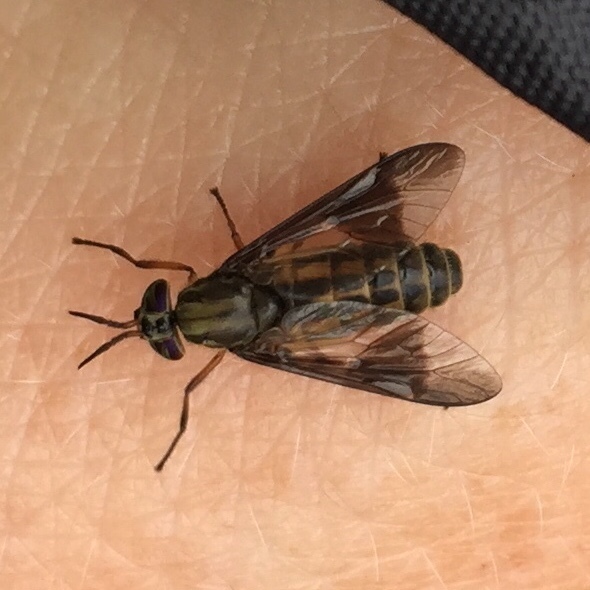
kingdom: Animalia
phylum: Arthropoda
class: Insecta
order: Diptera
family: Tabanidae
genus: Chrysops
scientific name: Chrysops aberrans
